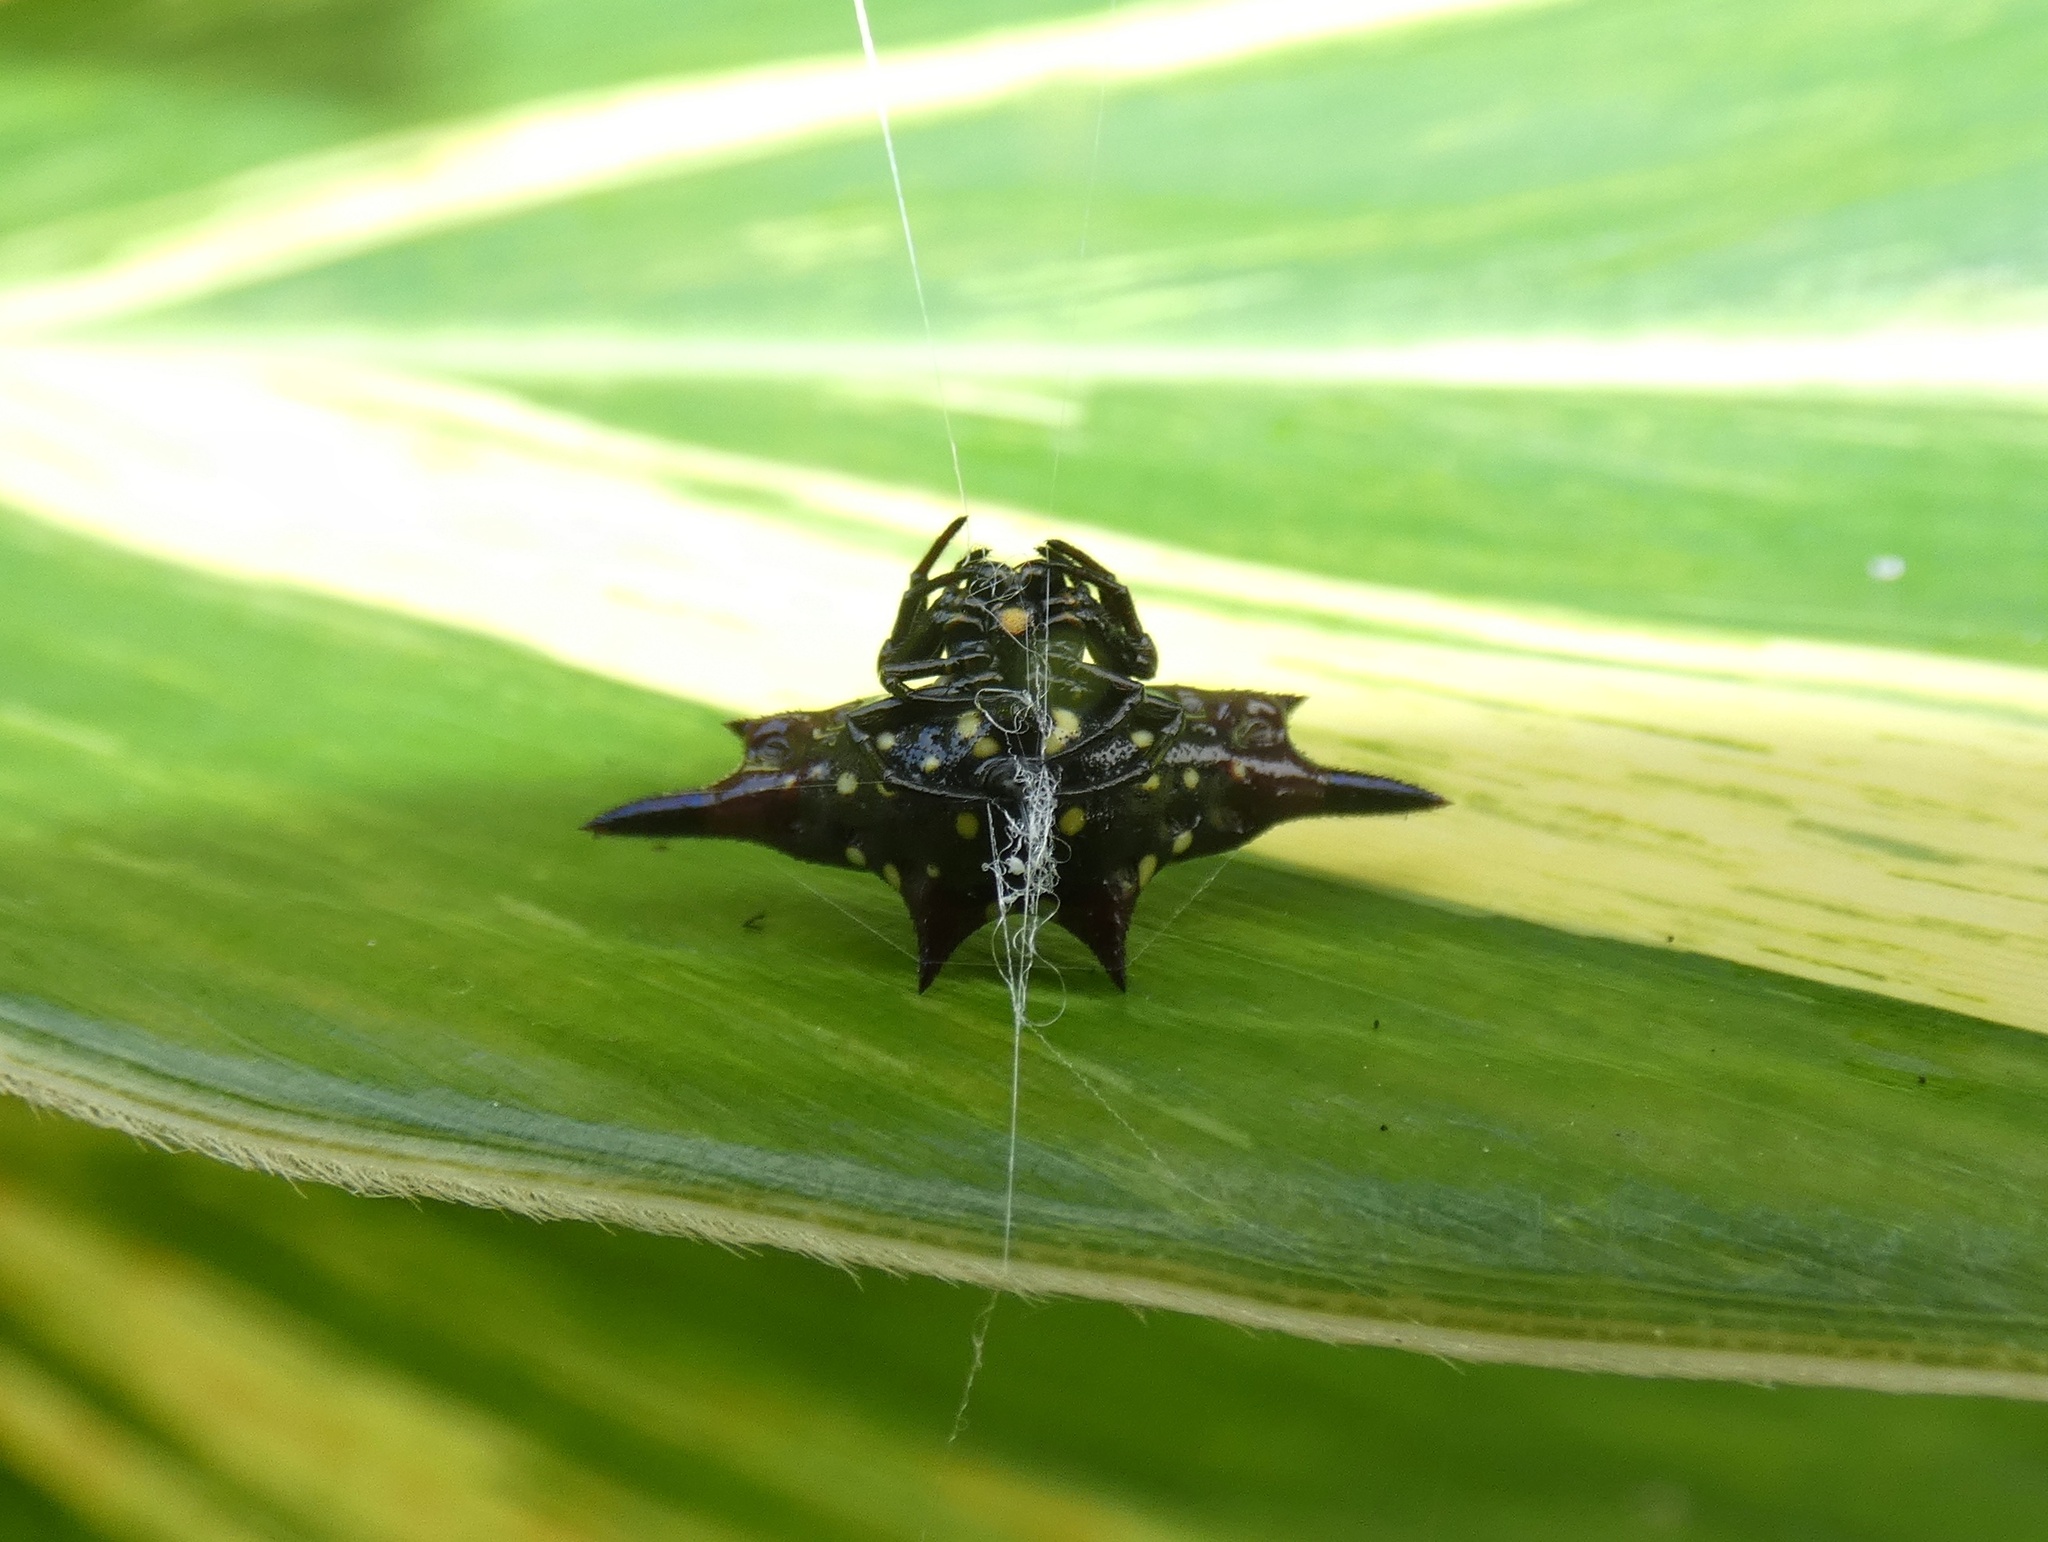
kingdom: Animalia
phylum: Arthropoda
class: Arachnida
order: Araneae
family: Araneidae
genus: Gasteracantha
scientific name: Gasteracantha fornicata
